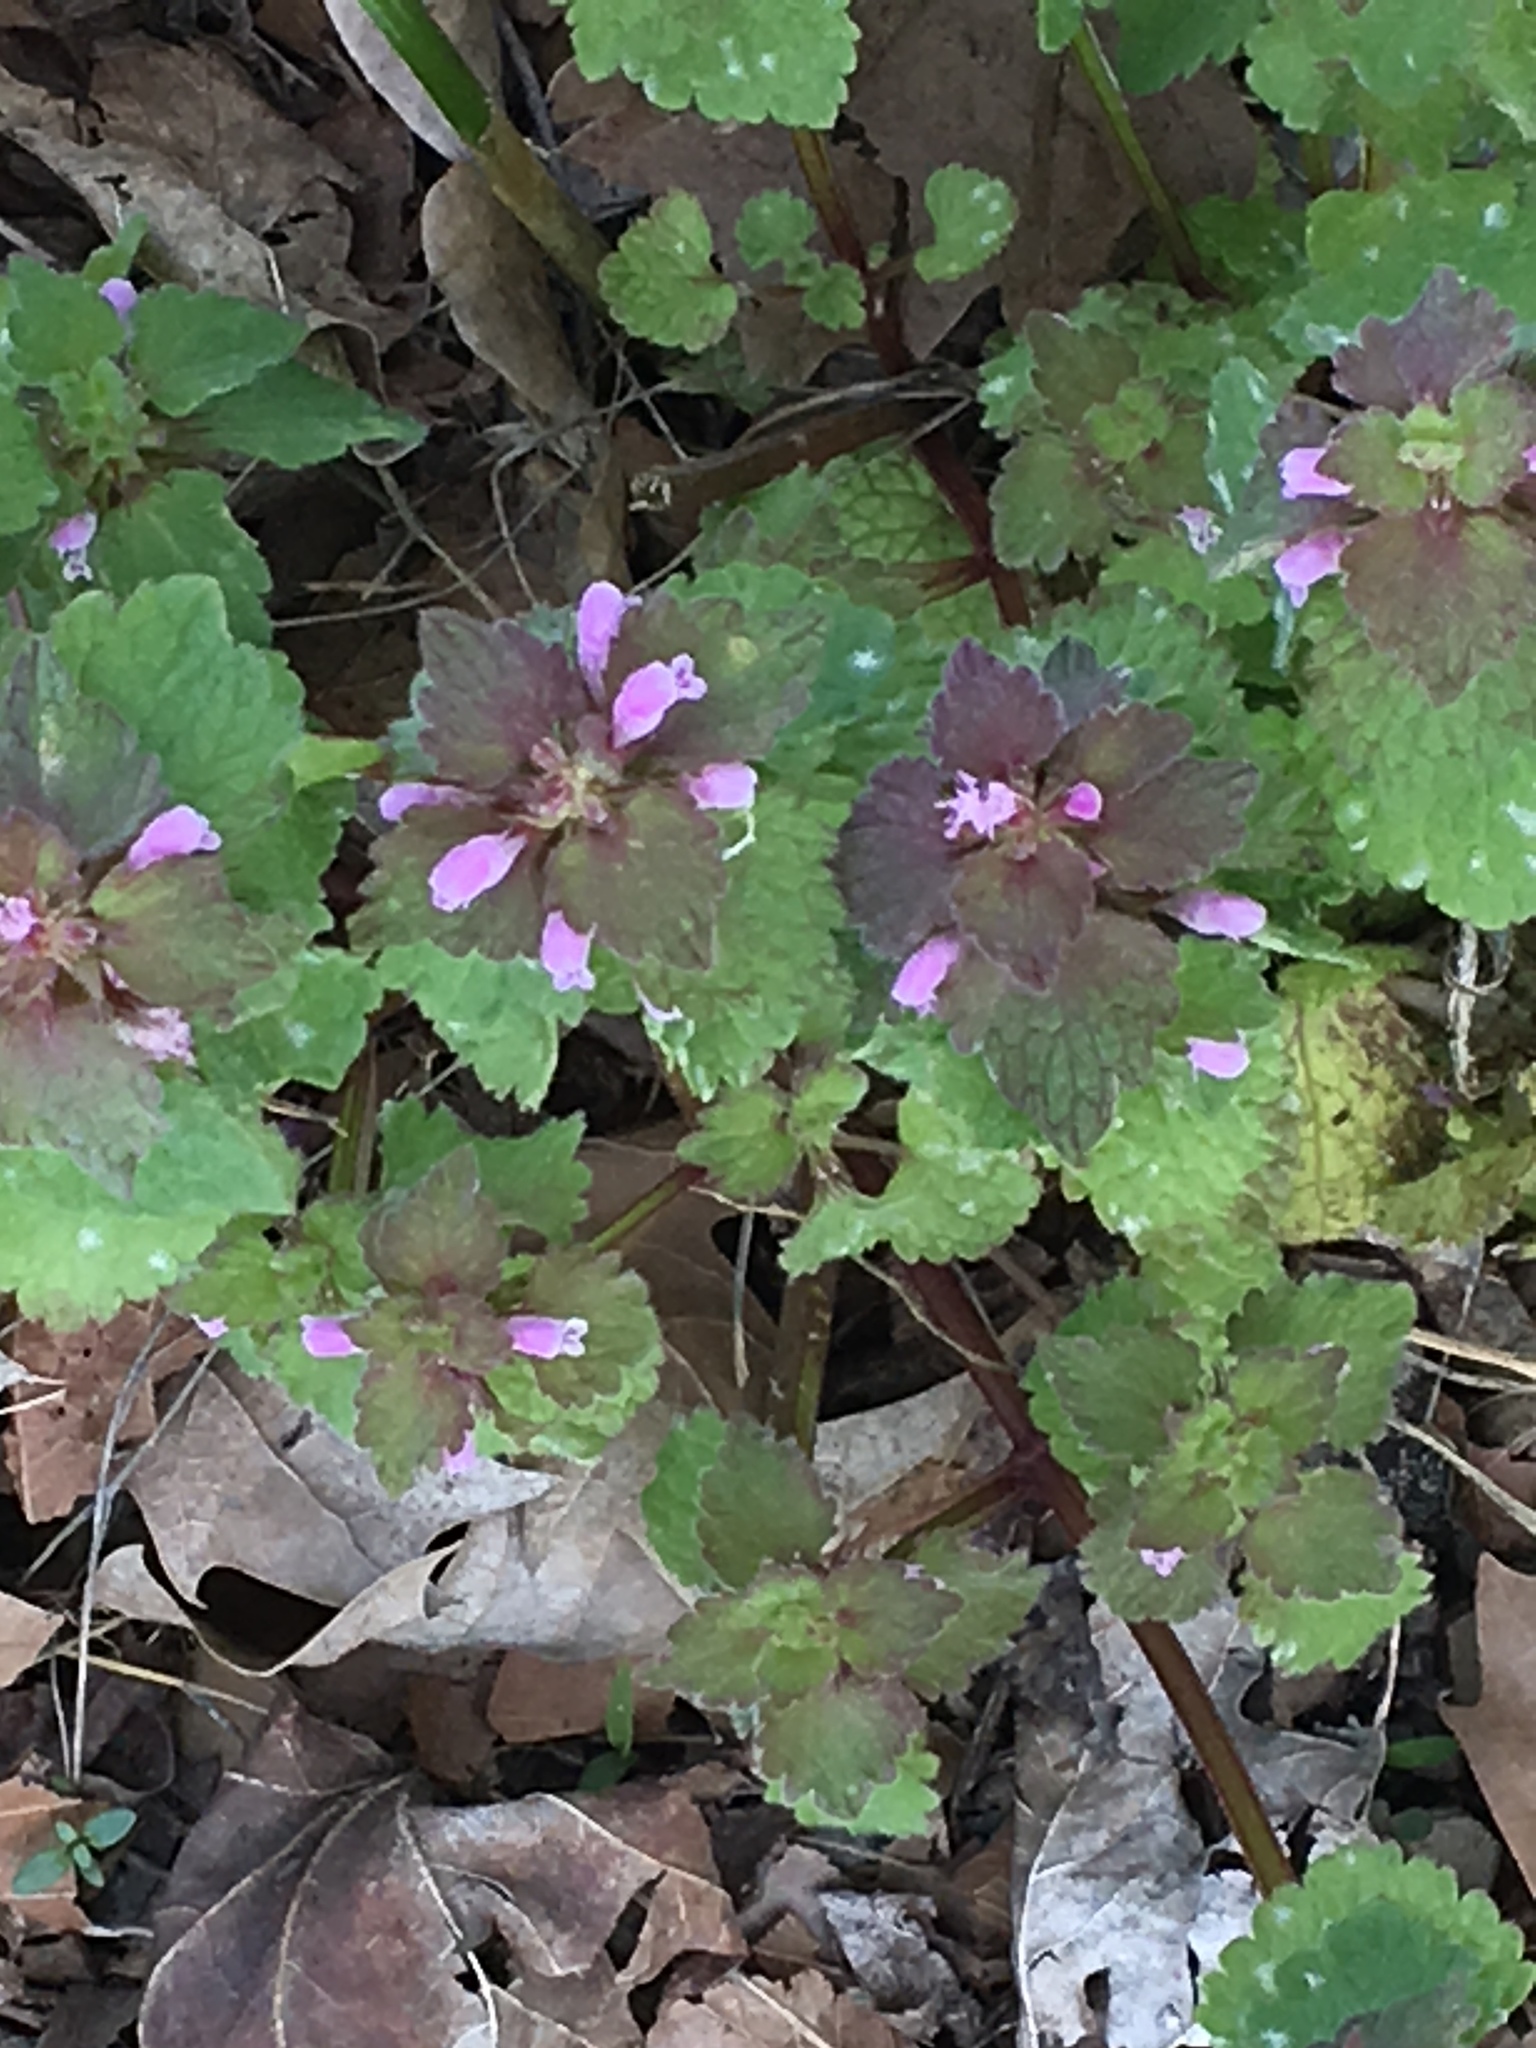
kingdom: Plantae
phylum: Tracheophyta
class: Magnoliopsida
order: Lamiales
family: Lamiaceae
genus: Lamium
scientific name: Lamium purpureum
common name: Red dead-nettle
